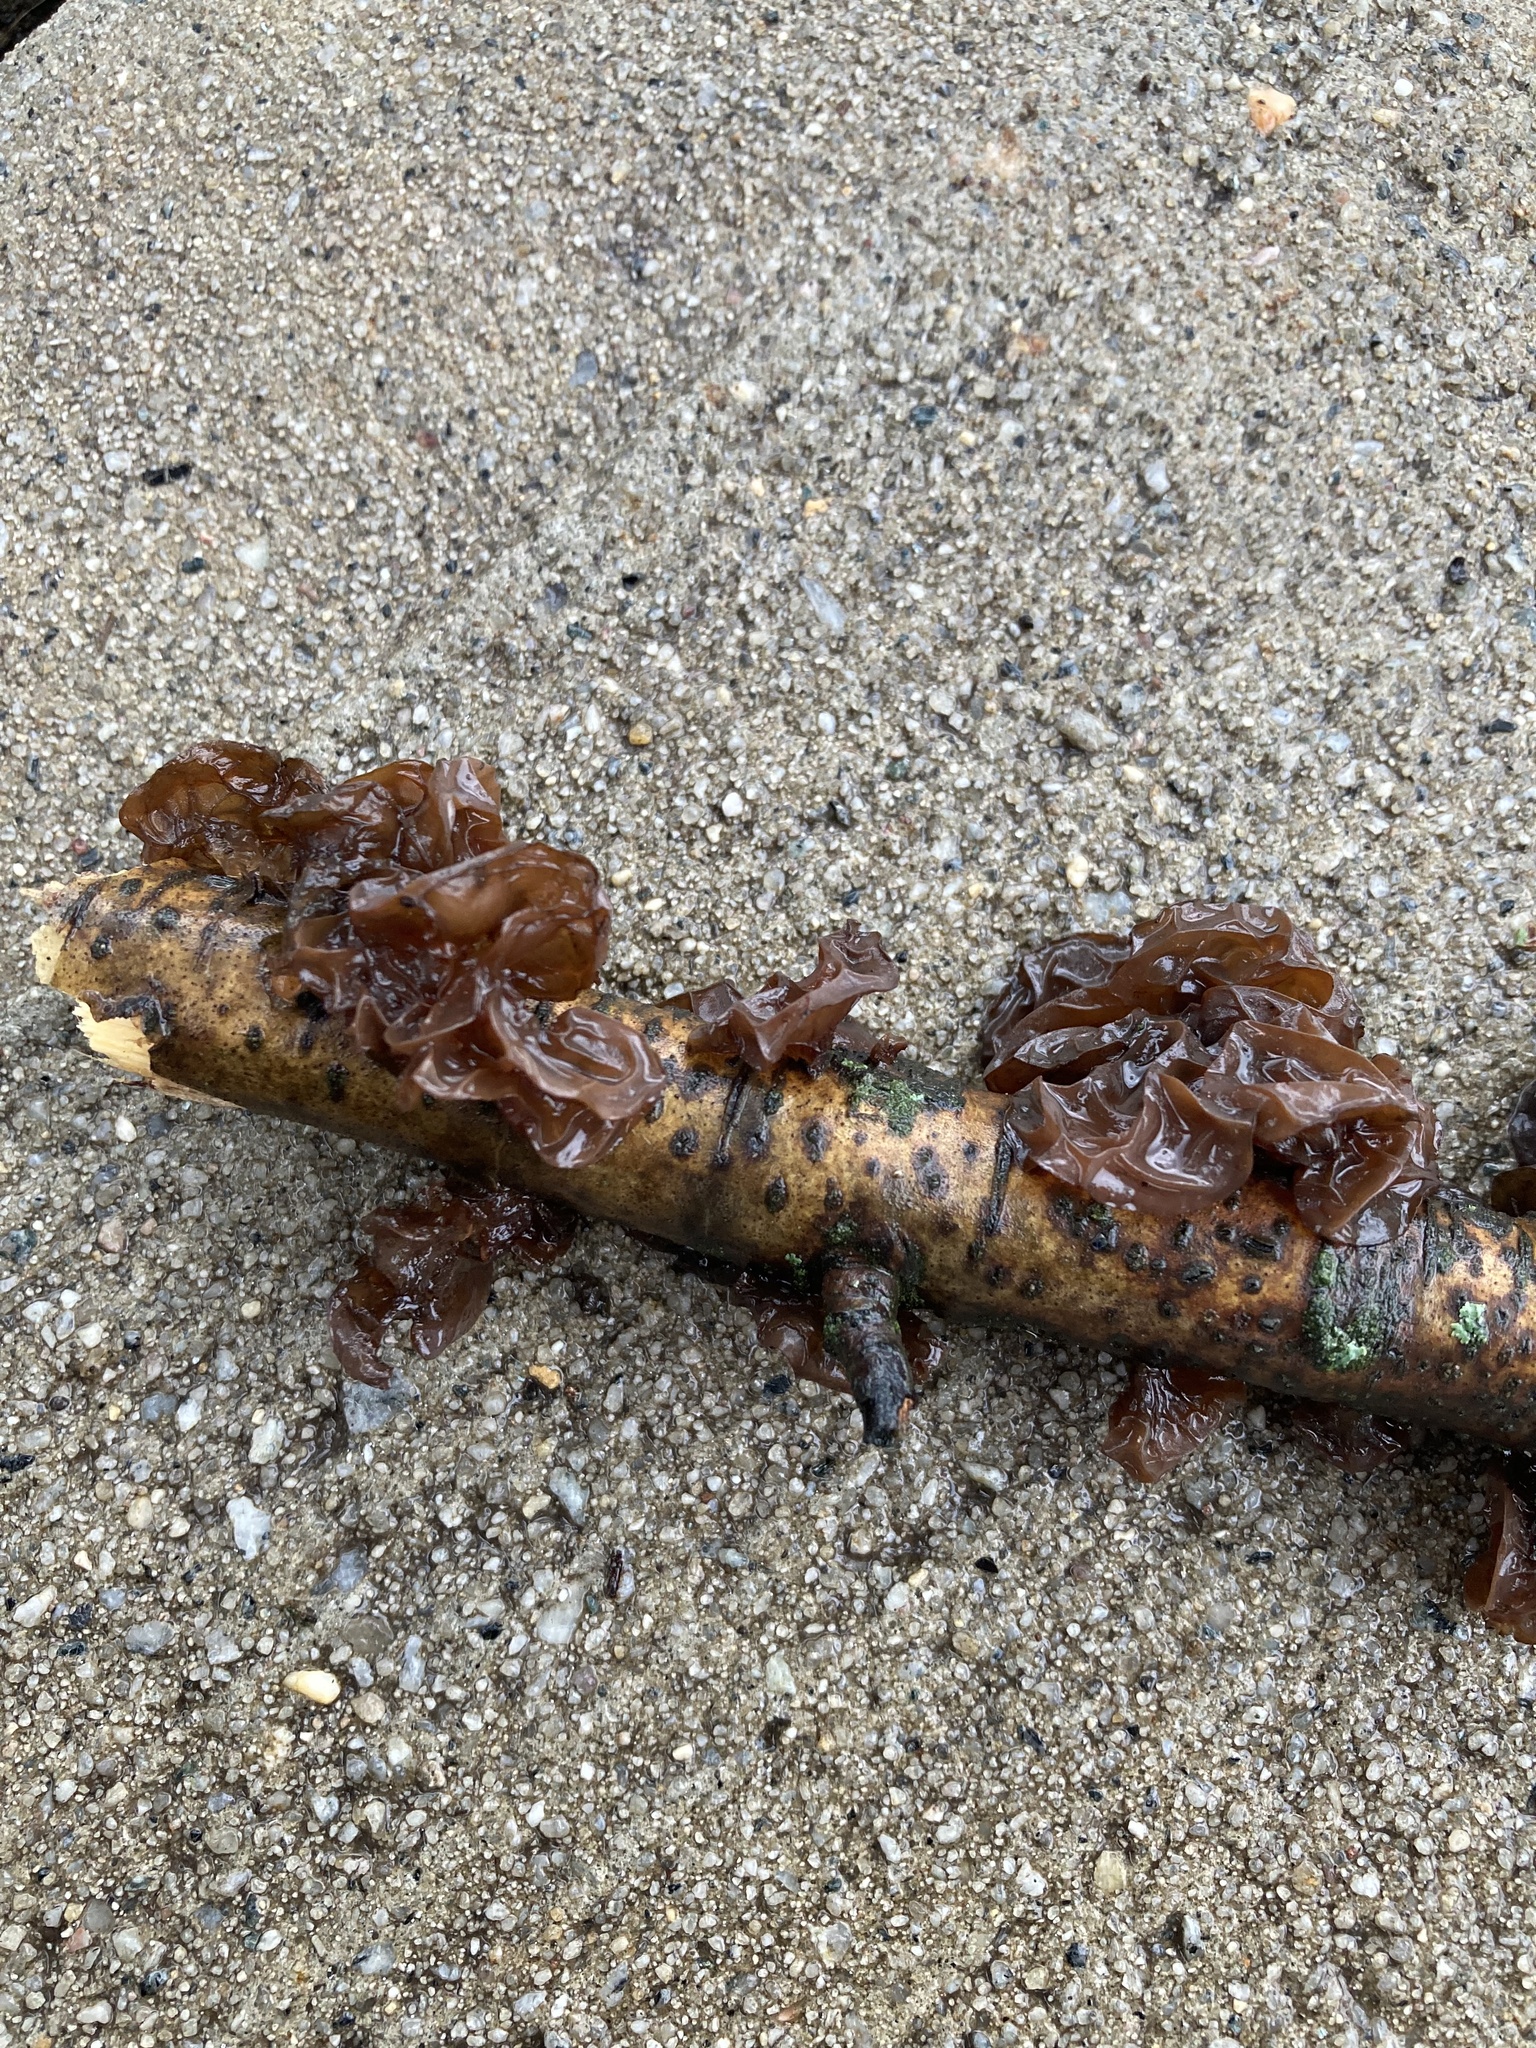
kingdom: Fungi
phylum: Basidiomycota
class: Agaricomycetes
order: Auriculariales
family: Auriculariaceae
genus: Exidia
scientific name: Exidia
